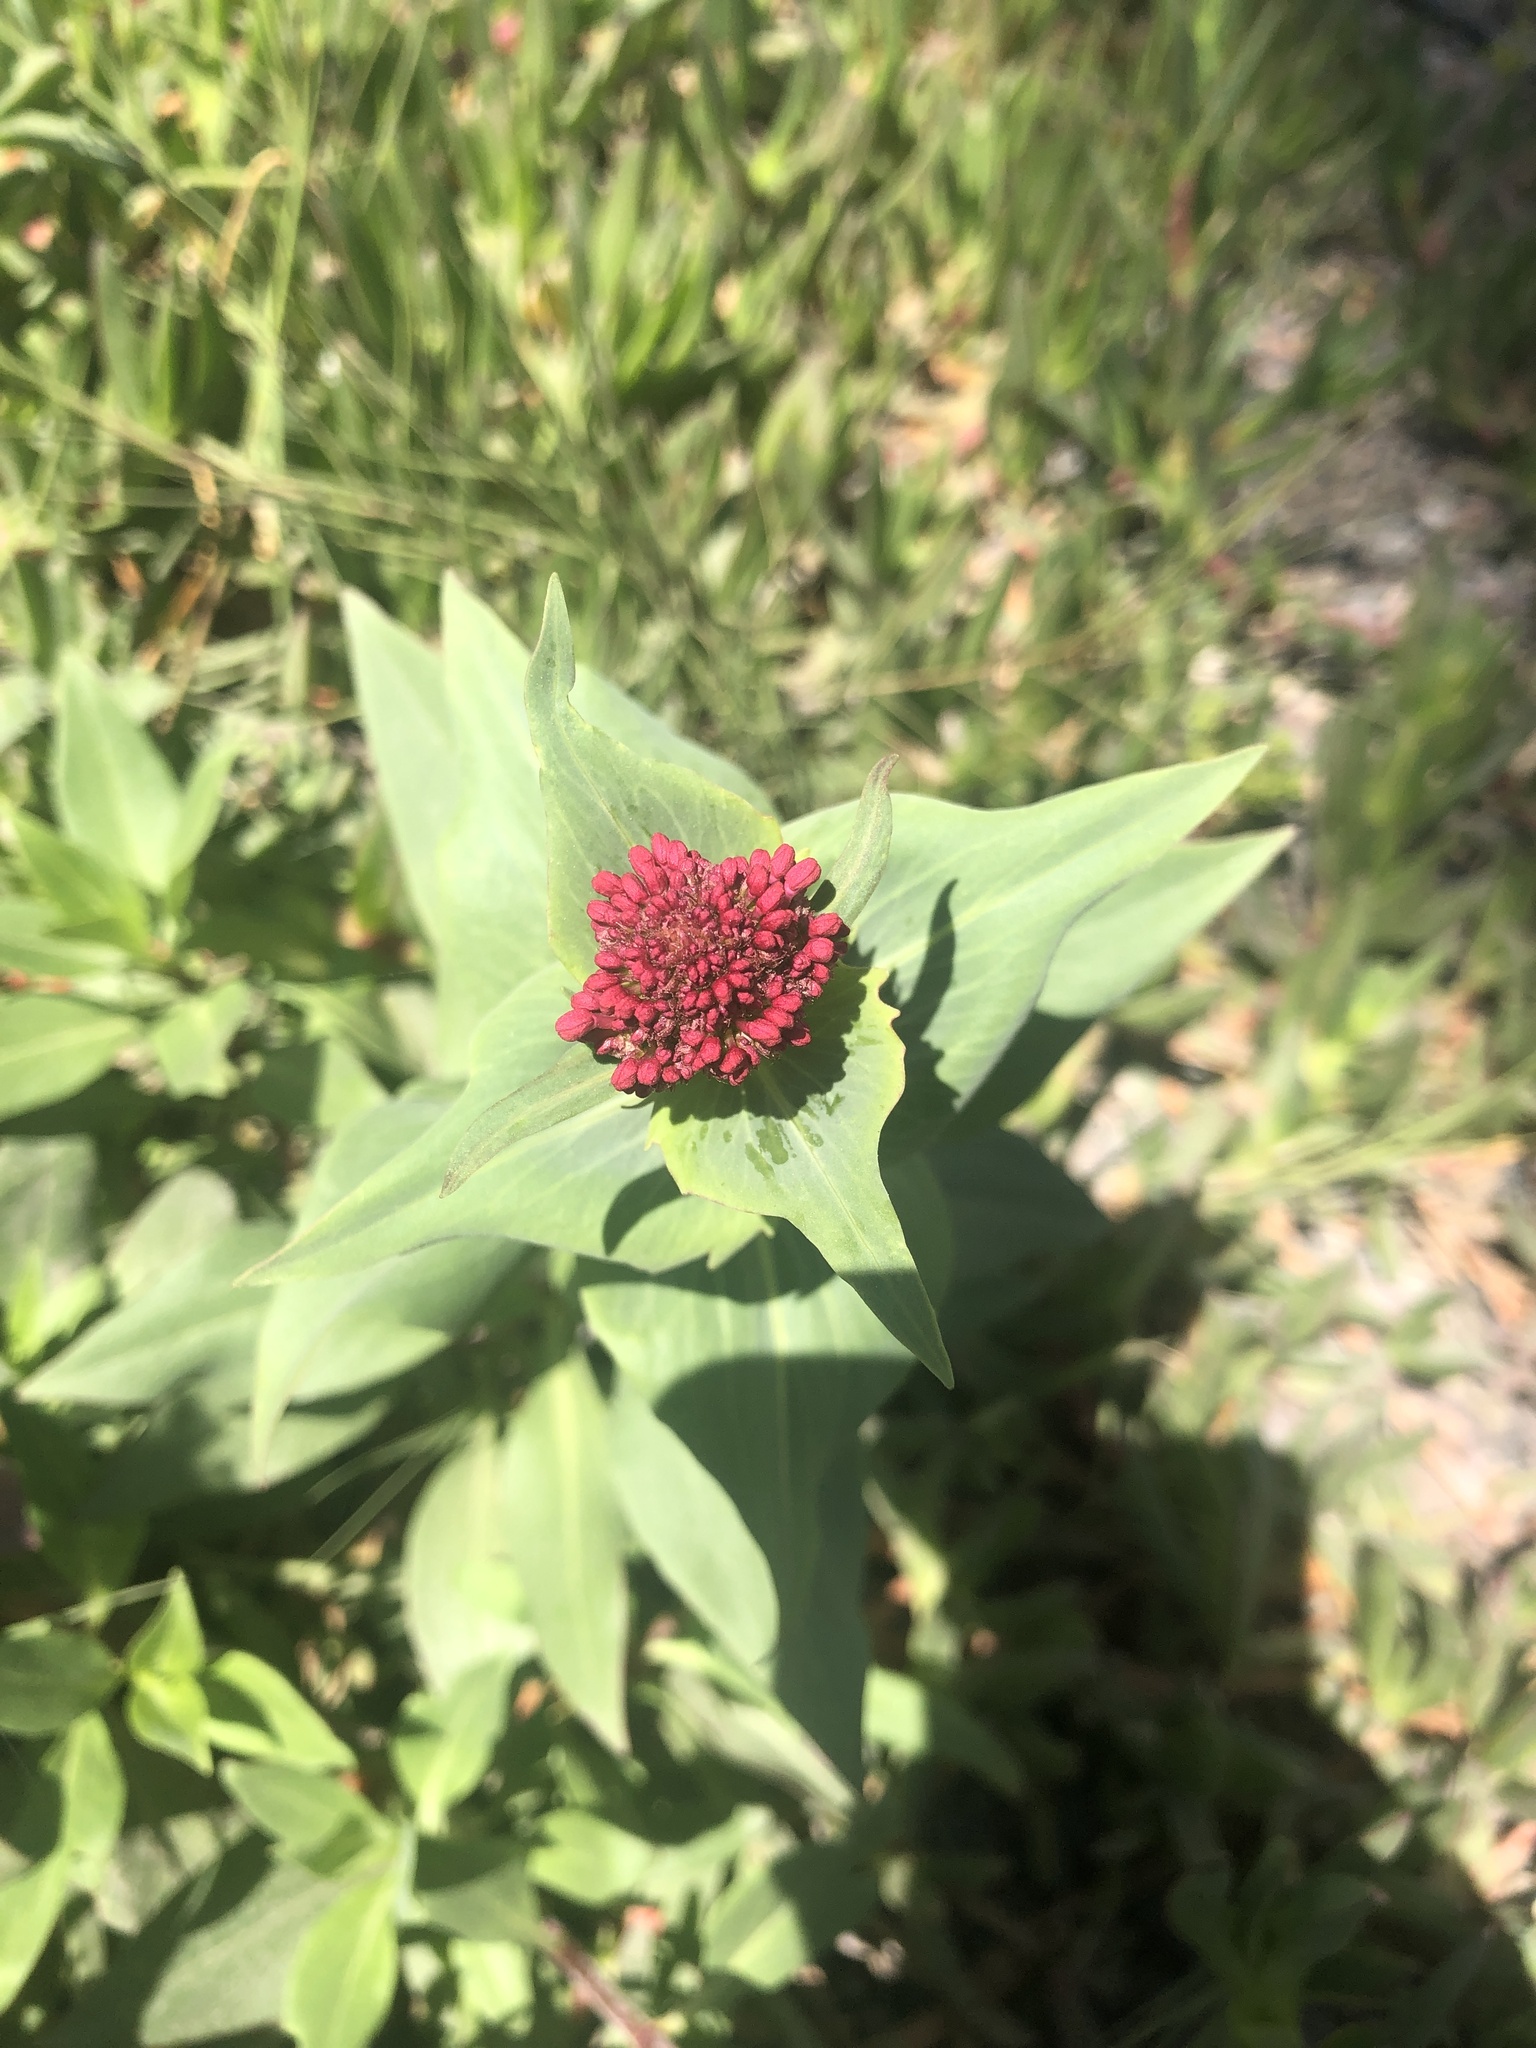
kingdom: Plantae
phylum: Tracheophyta
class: Magnoliopsida
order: Dipsacales
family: Caprifoliaceae
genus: Centranthus
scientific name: Centranthus ruber
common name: Red valerian
